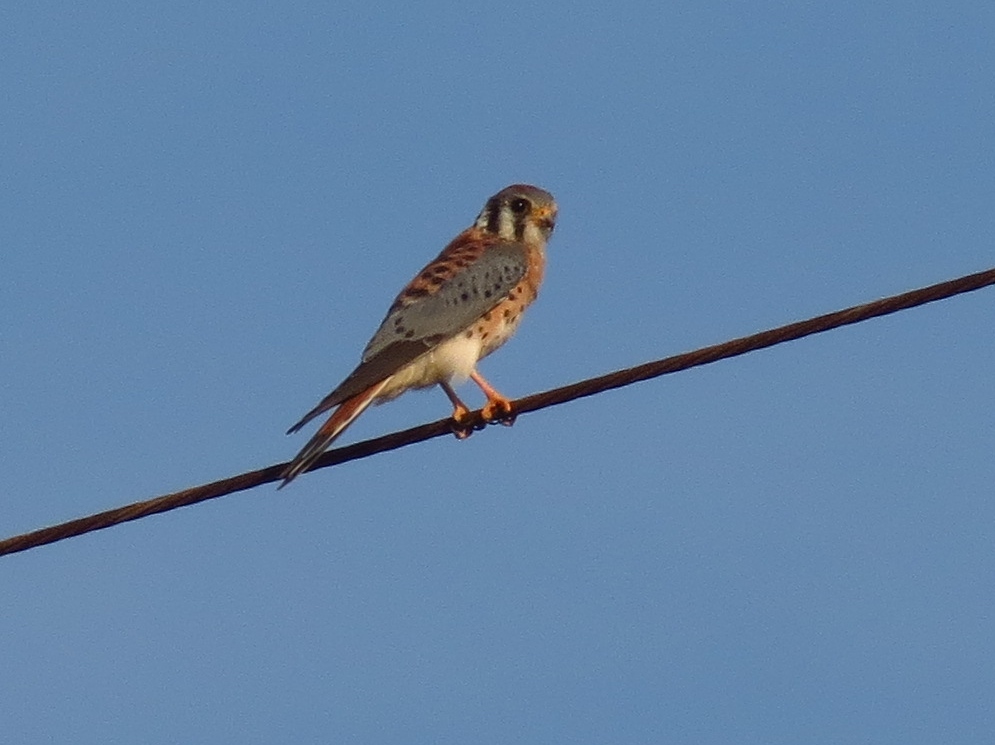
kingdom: Animalia
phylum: Chordata
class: Aves
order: Falconiformes
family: Falconidae
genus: Falco
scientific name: Falco sparverius
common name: American kestrel
